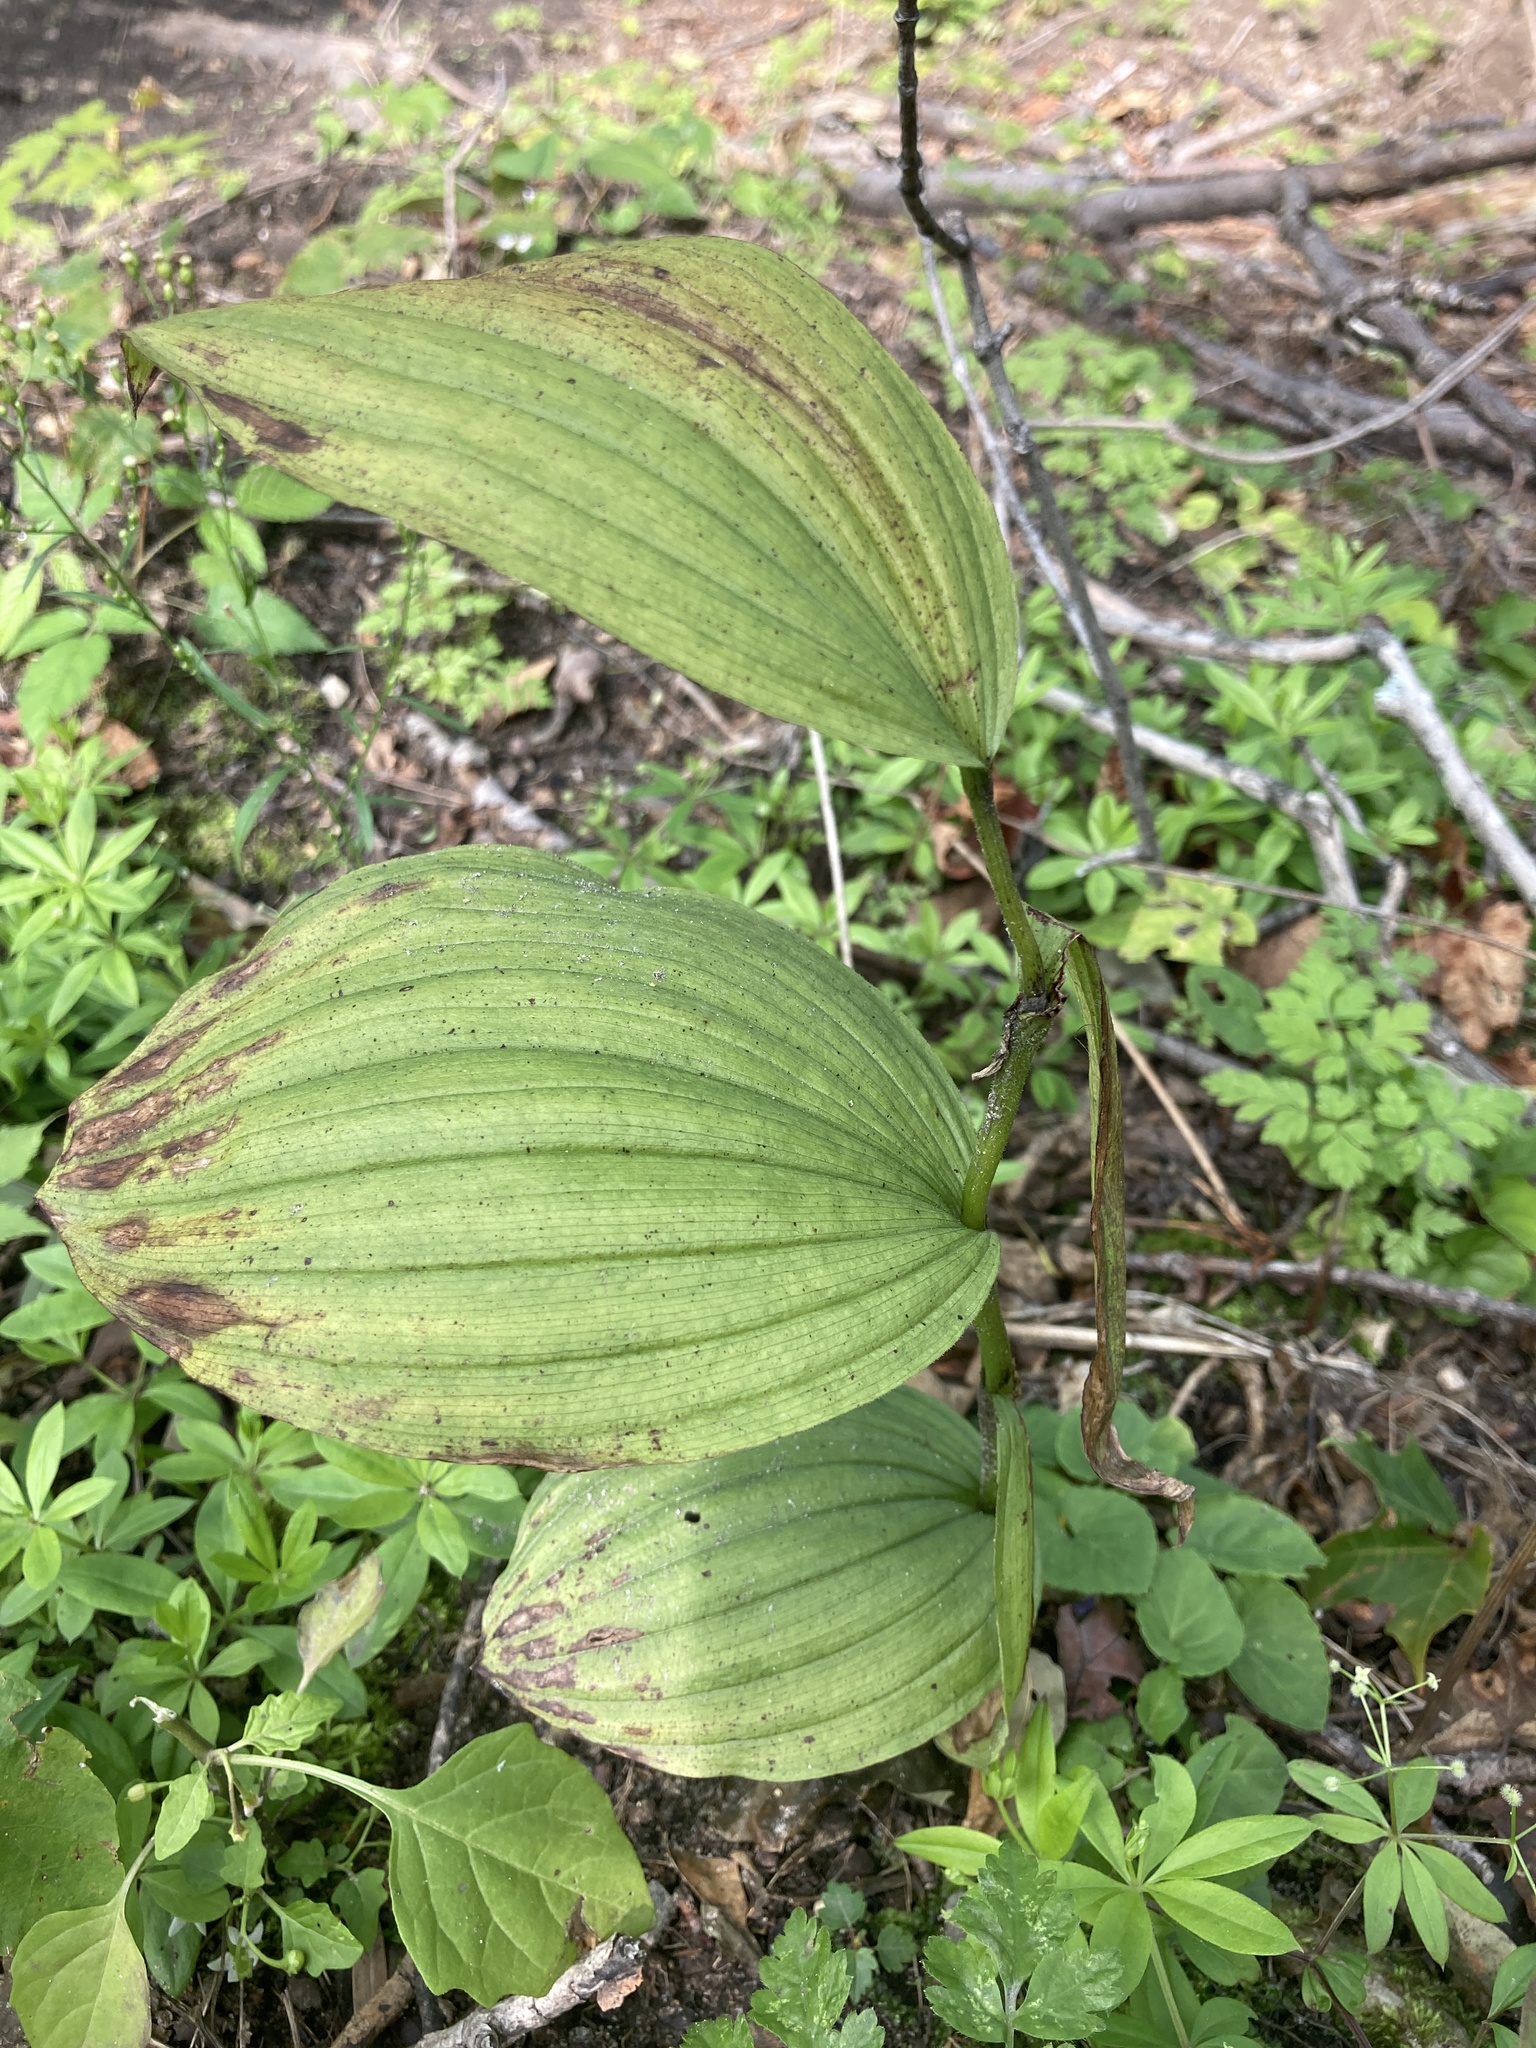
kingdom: Plantae
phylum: Tracheophyta
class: Liliopsida
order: Asparagales
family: Orchidaceae
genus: Cypripedium
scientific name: Cypripedium parviflorum
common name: American yellow lady's-slipper
